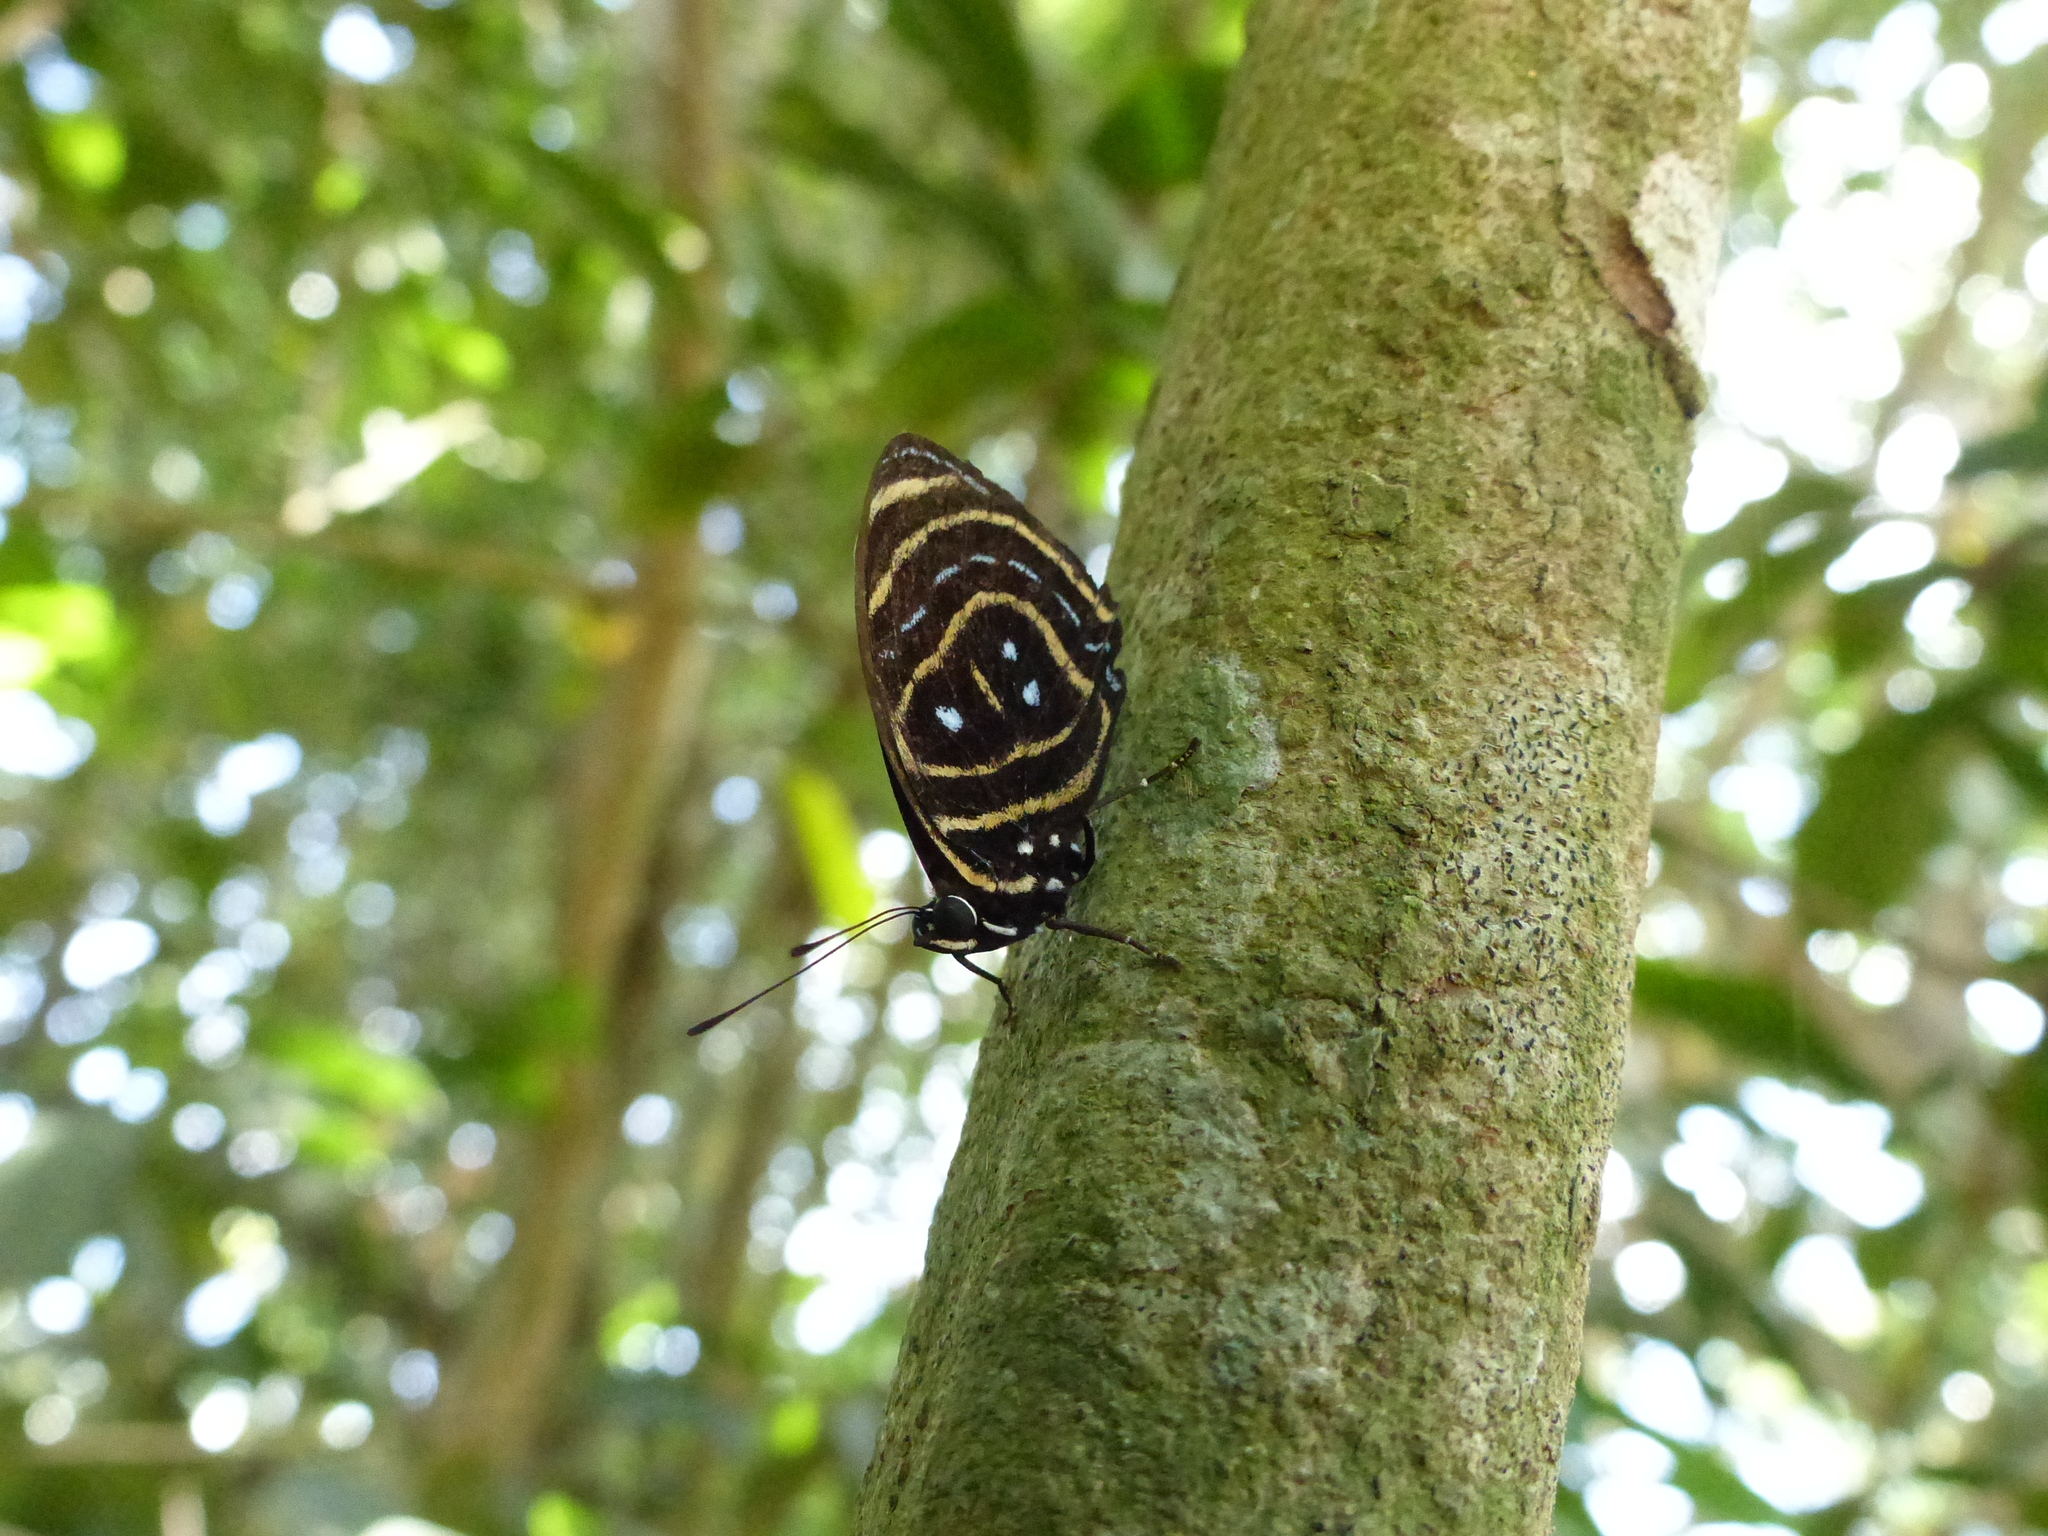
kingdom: Animalia
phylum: Arthropoda
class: Insecta
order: Lepidoptera
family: Nymphalidae
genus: Catagramma
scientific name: Catagramma astarte
